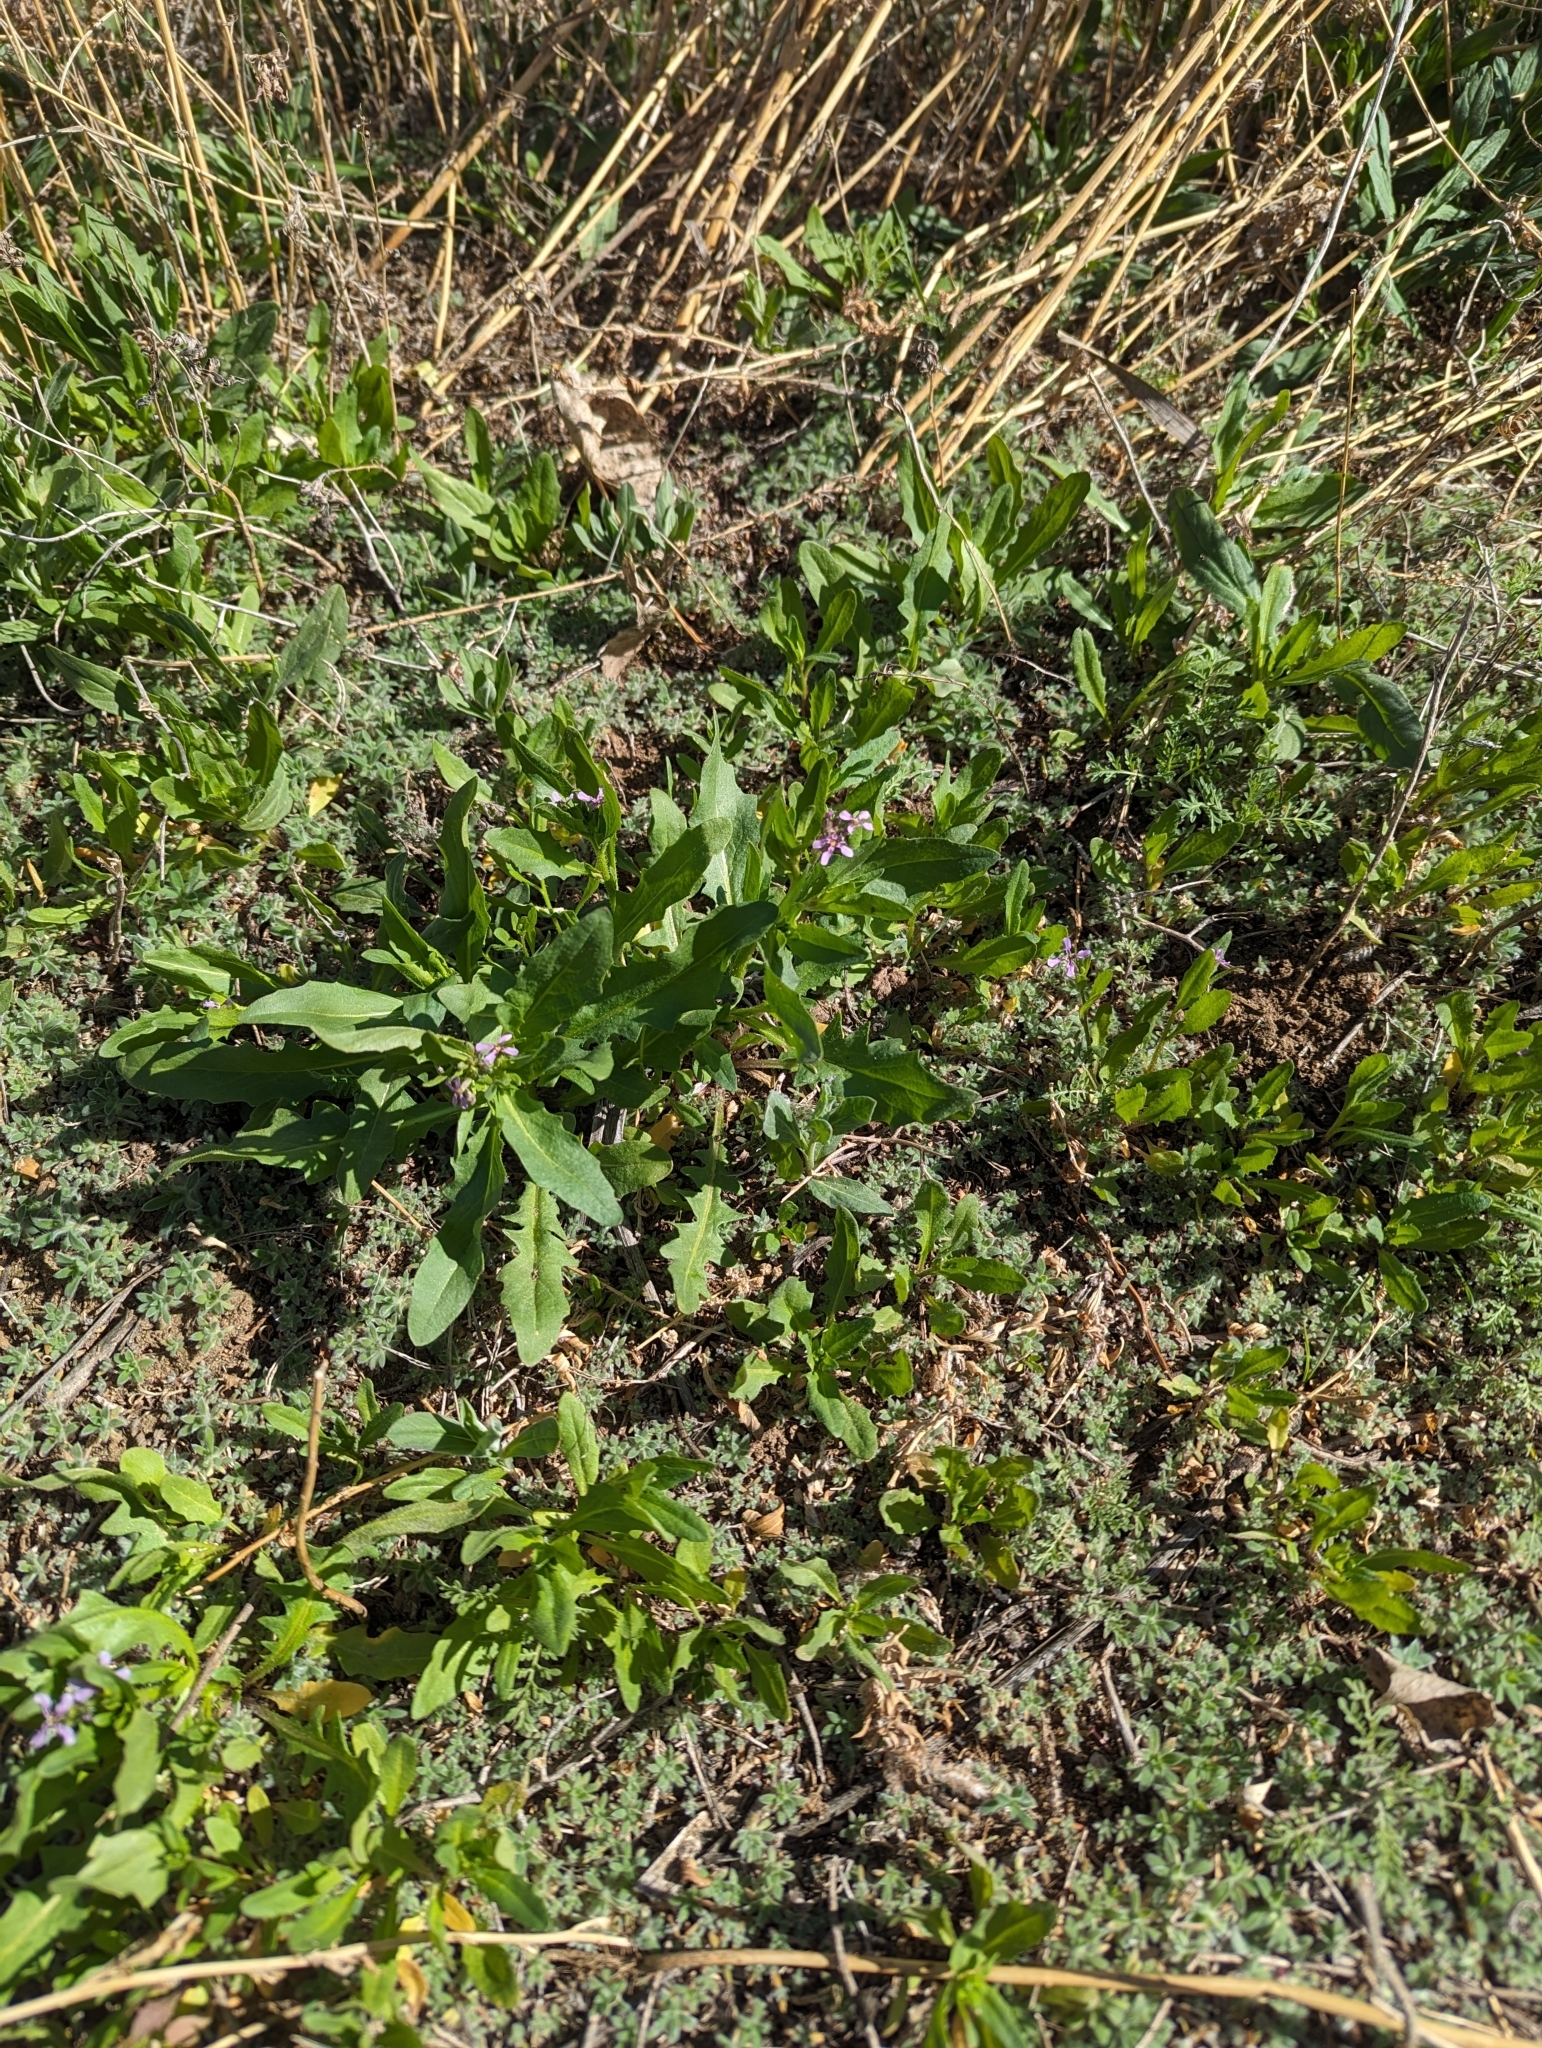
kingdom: Plantae
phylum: Tracheophyta
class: Magnoliopsida
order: Brassicales
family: Brassicaceae
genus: Chorispora
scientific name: Chorispora tenella
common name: Crossflower
